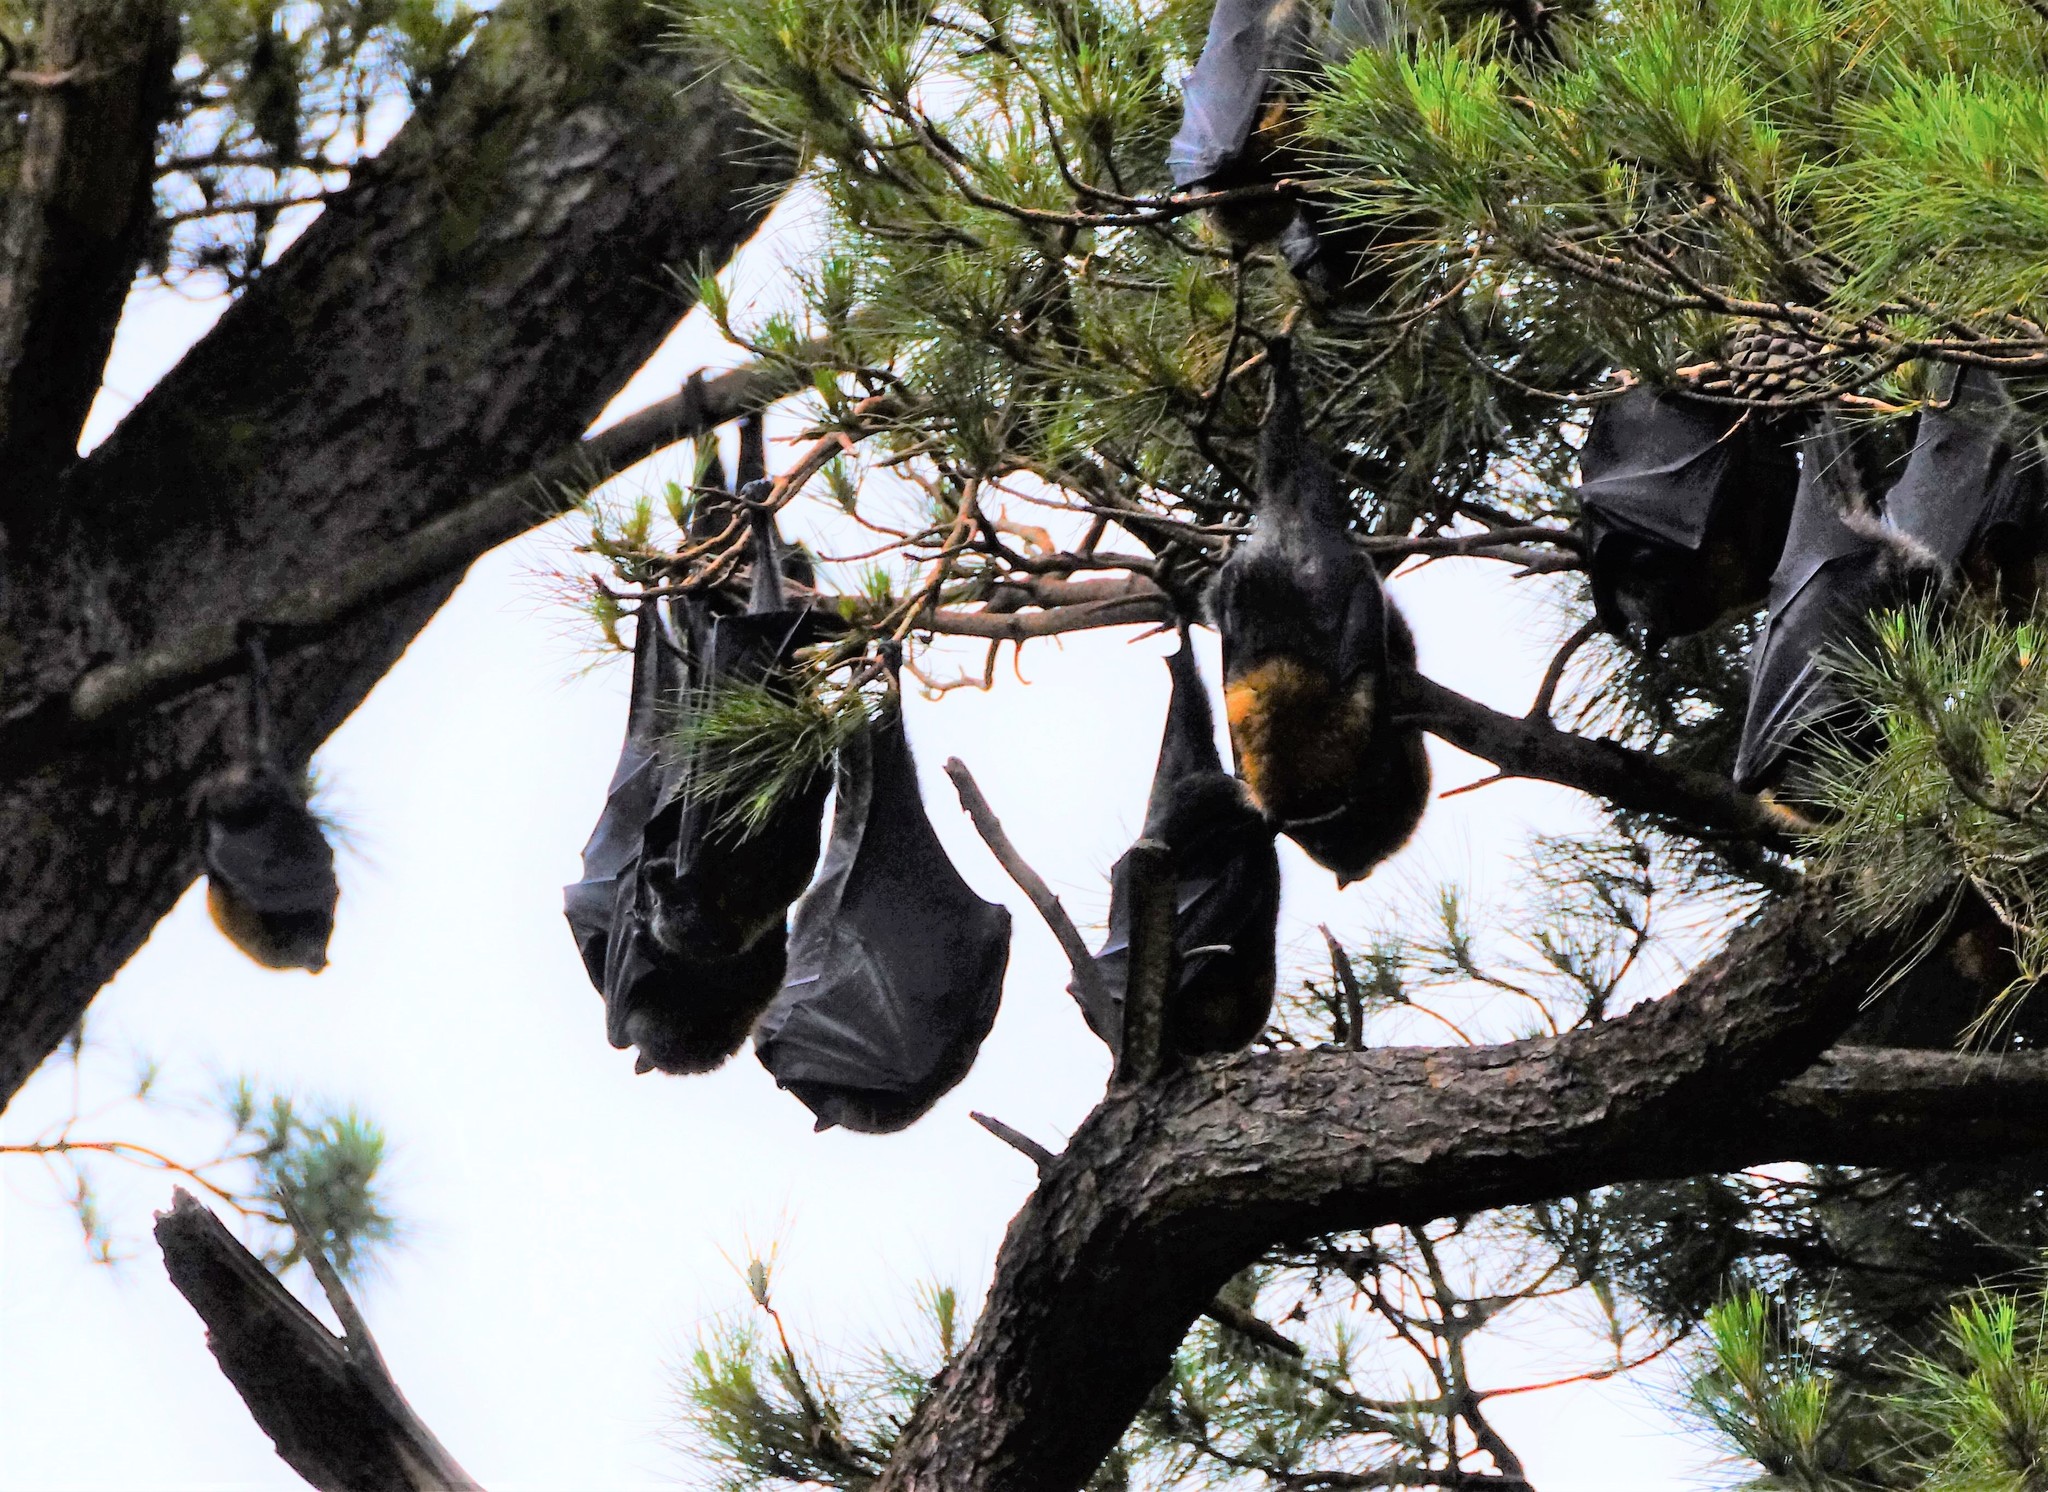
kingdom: Animalia
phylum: Chordata
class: Mammalia
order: Chiroptera
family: Pteropodidae
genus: Pteropus
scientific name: Pteropus poliocephalus
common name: Gray-headed flying fox
